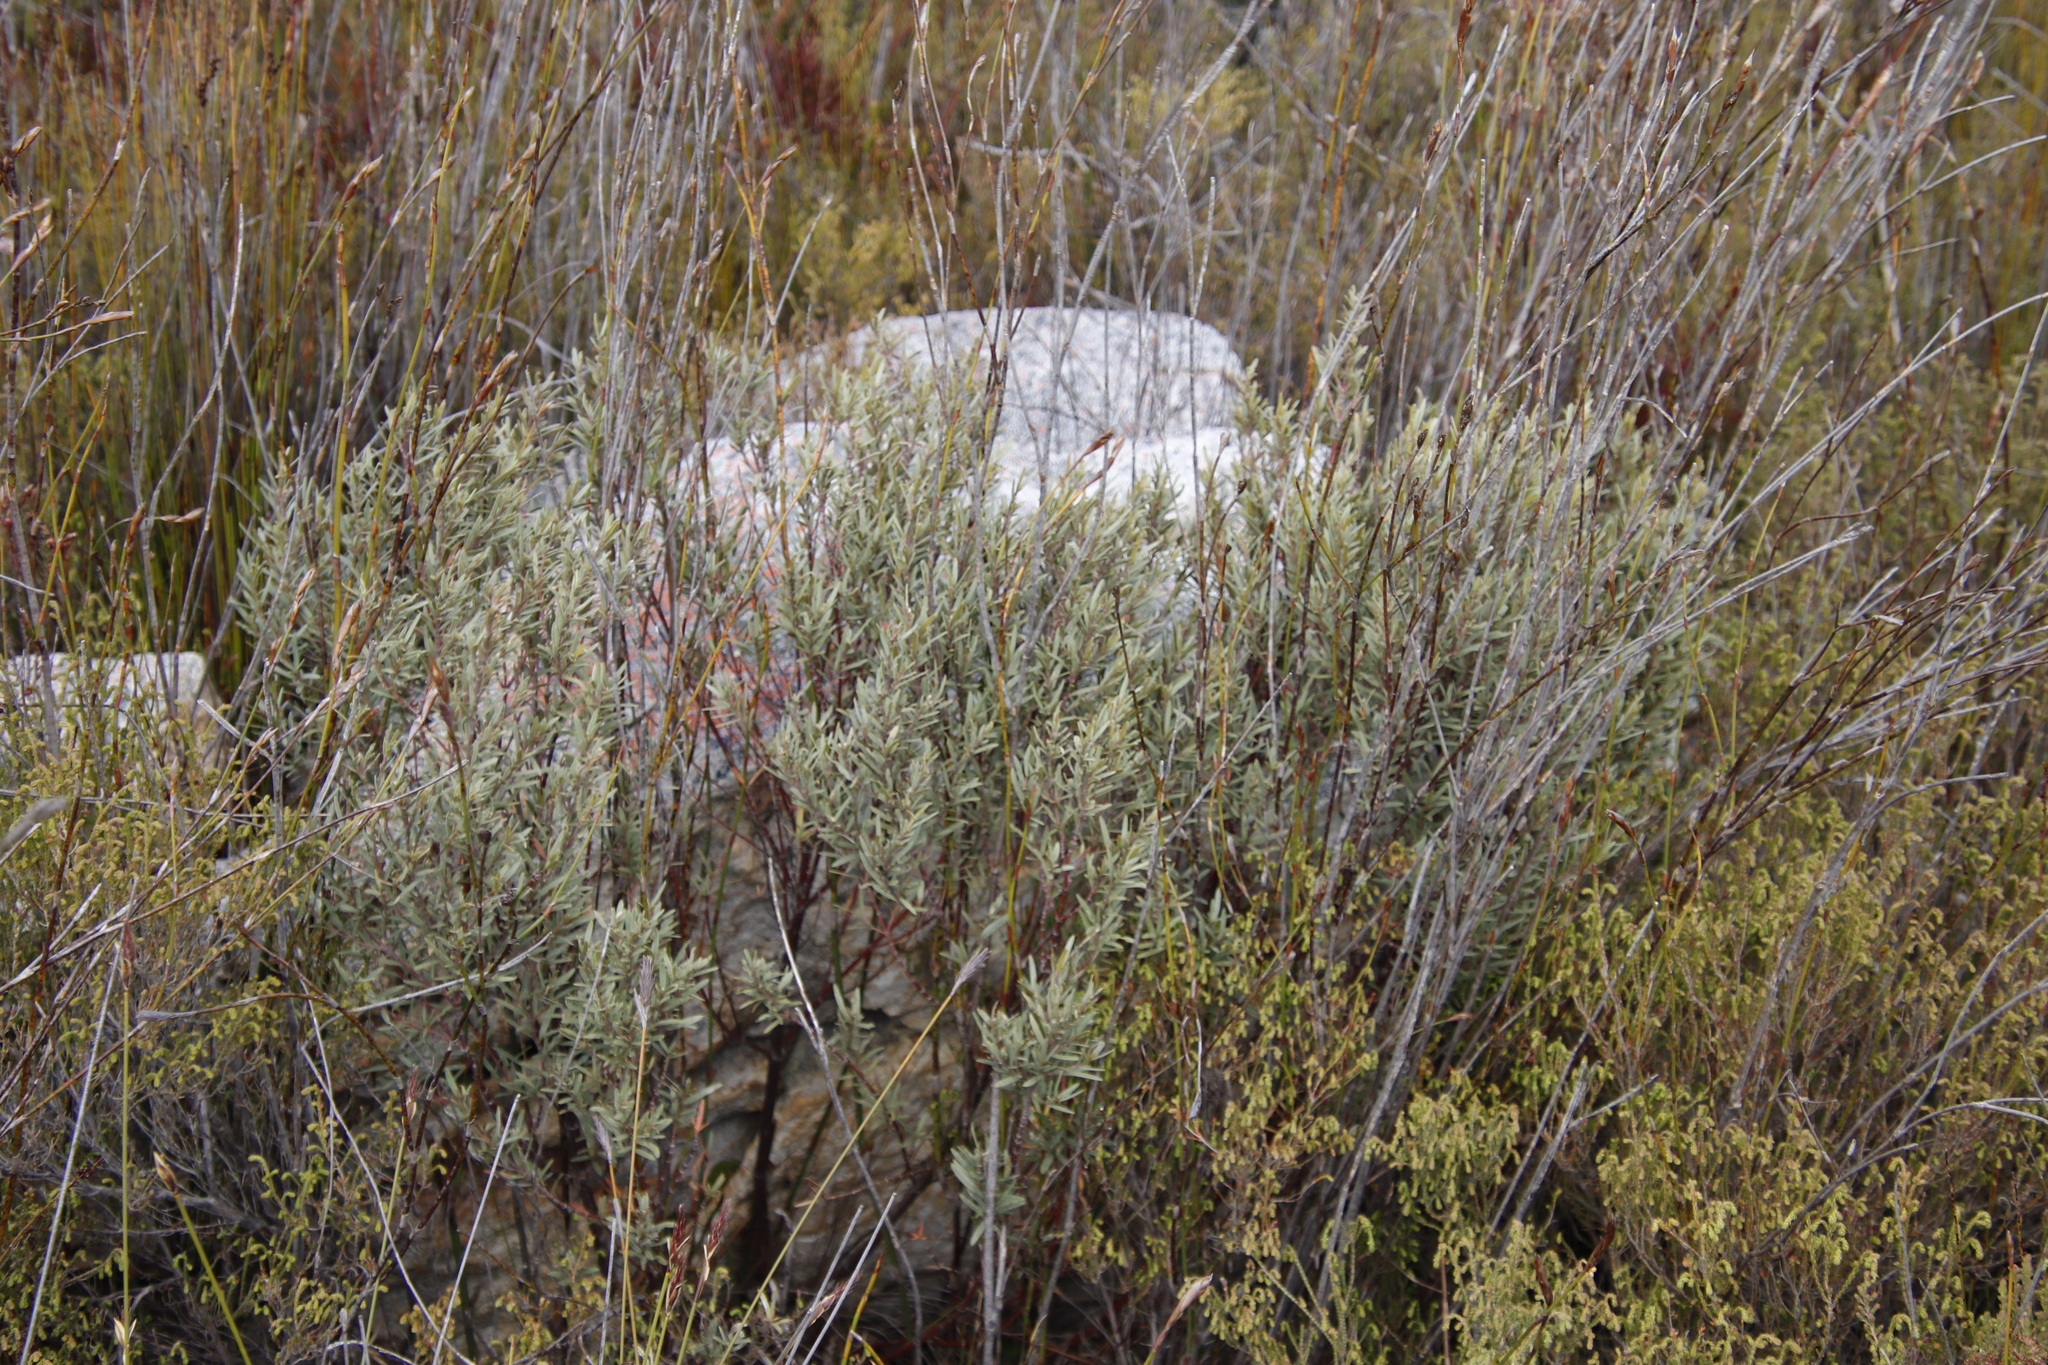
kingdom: Plantae
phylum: Tracheophyta
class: Magnoliopsida
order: Cornales
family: Grubbiaceae
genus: Grubbia
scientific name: Grubbia tomentosa
